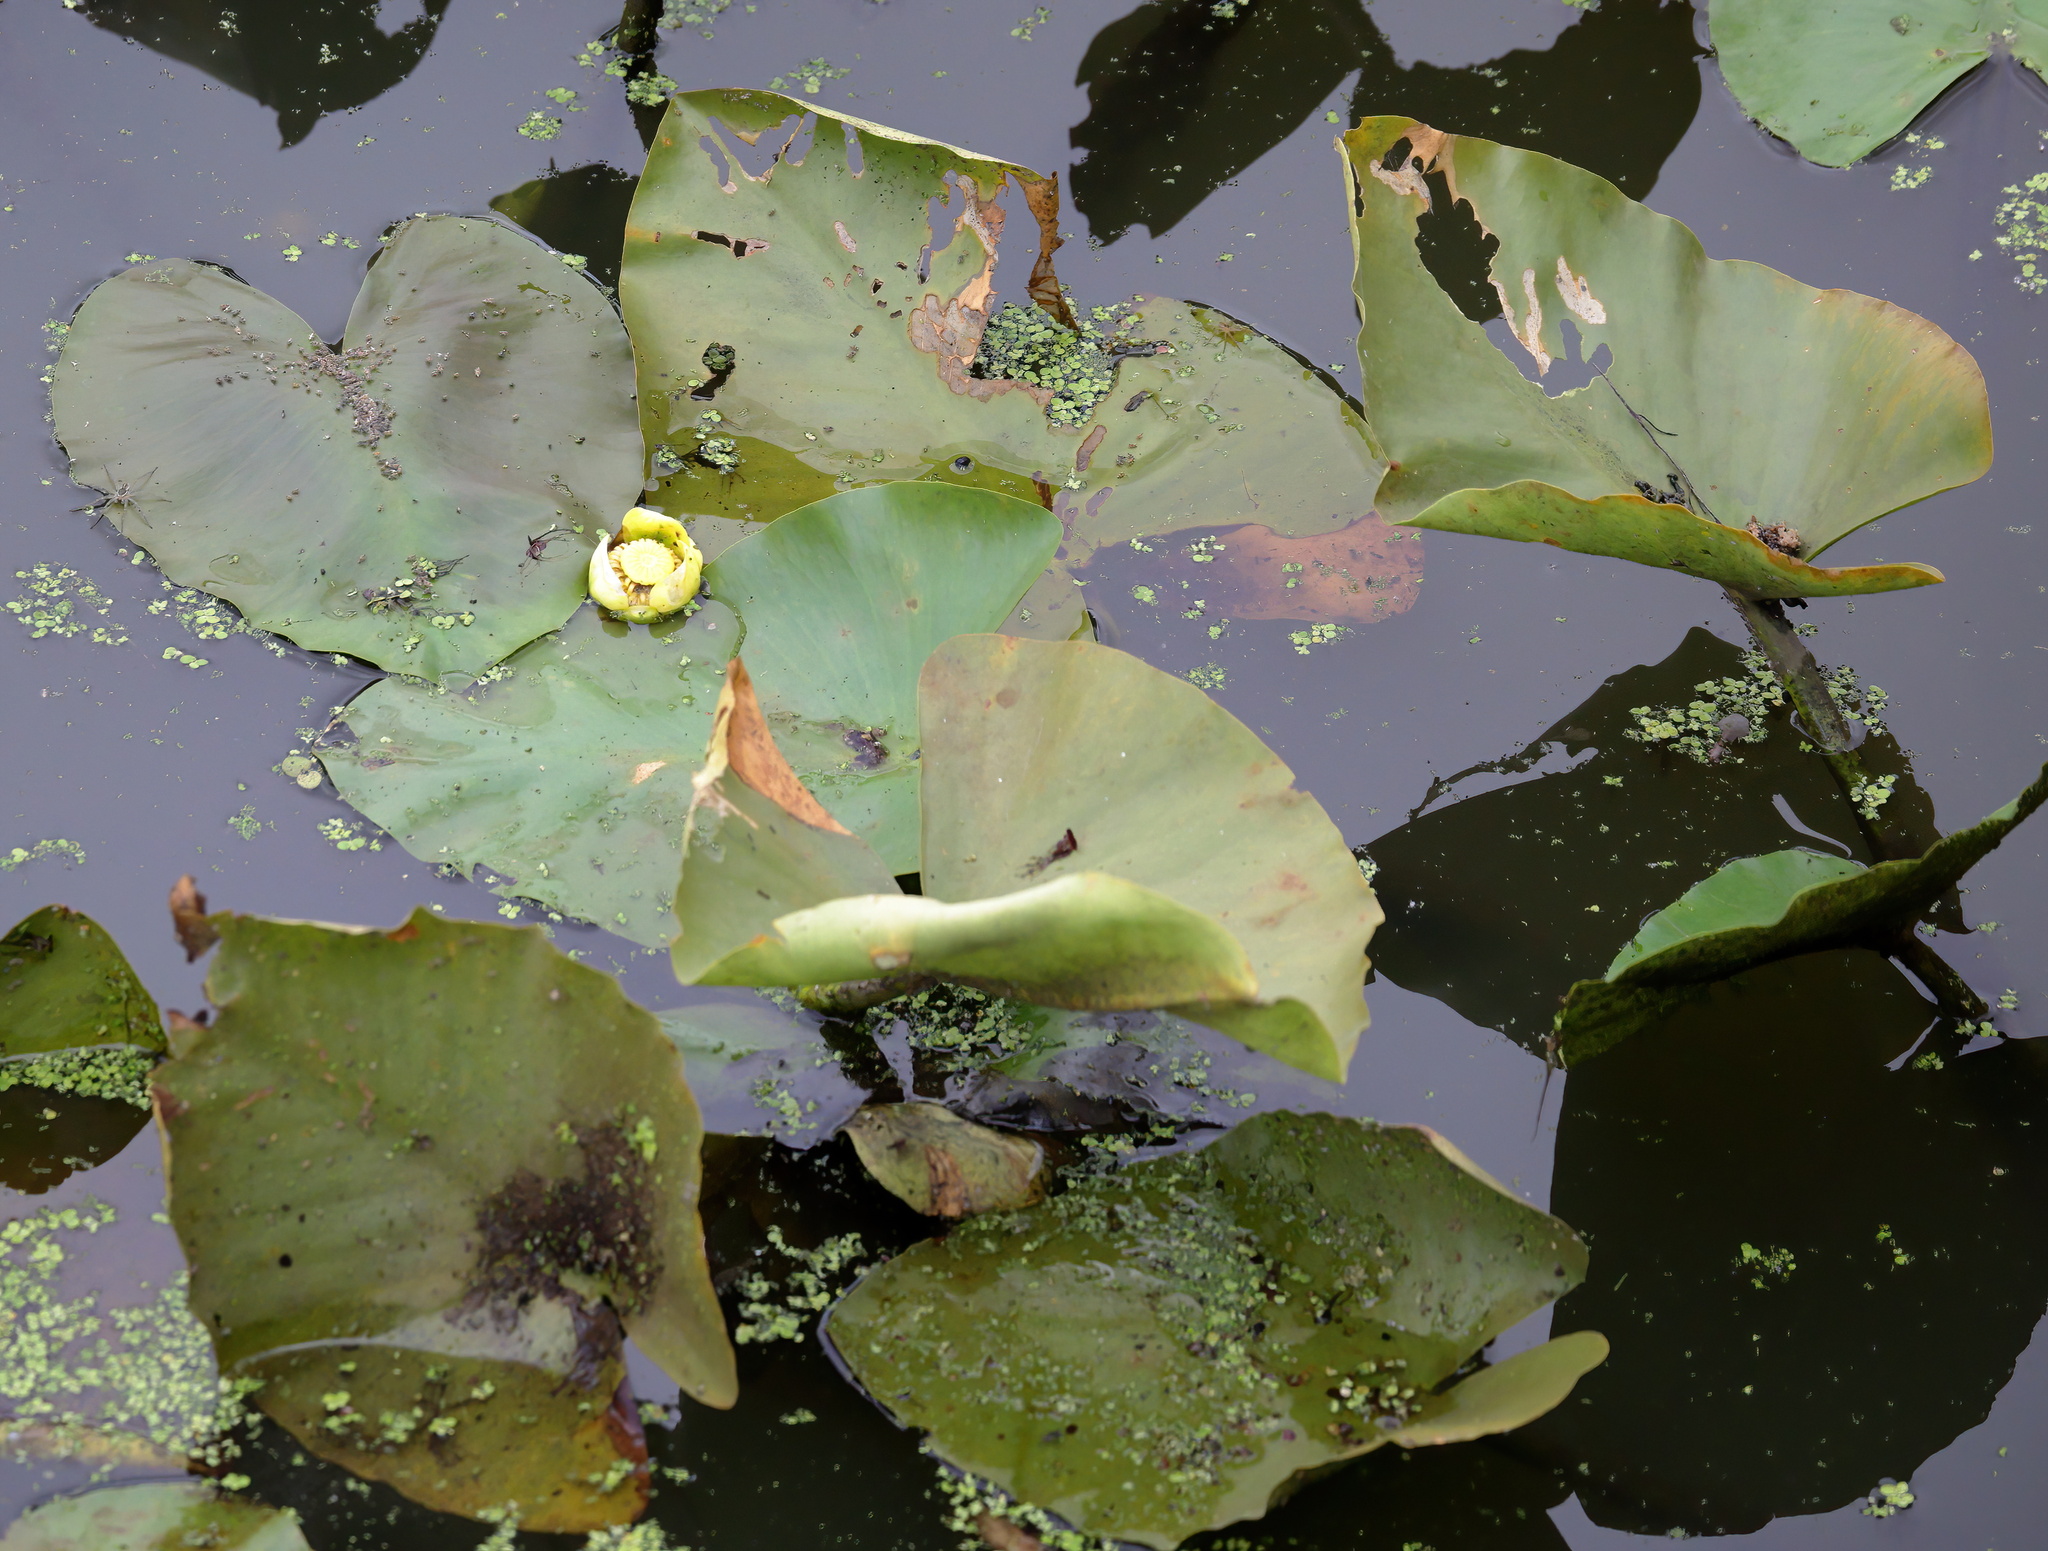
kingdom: Plantae
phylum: Tracheophyta
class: Magnoliopsida
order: Nymphaeales
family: Nymphaeaceae
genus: Nuphar
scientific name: Nuphar advena
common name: Spatter-dock
